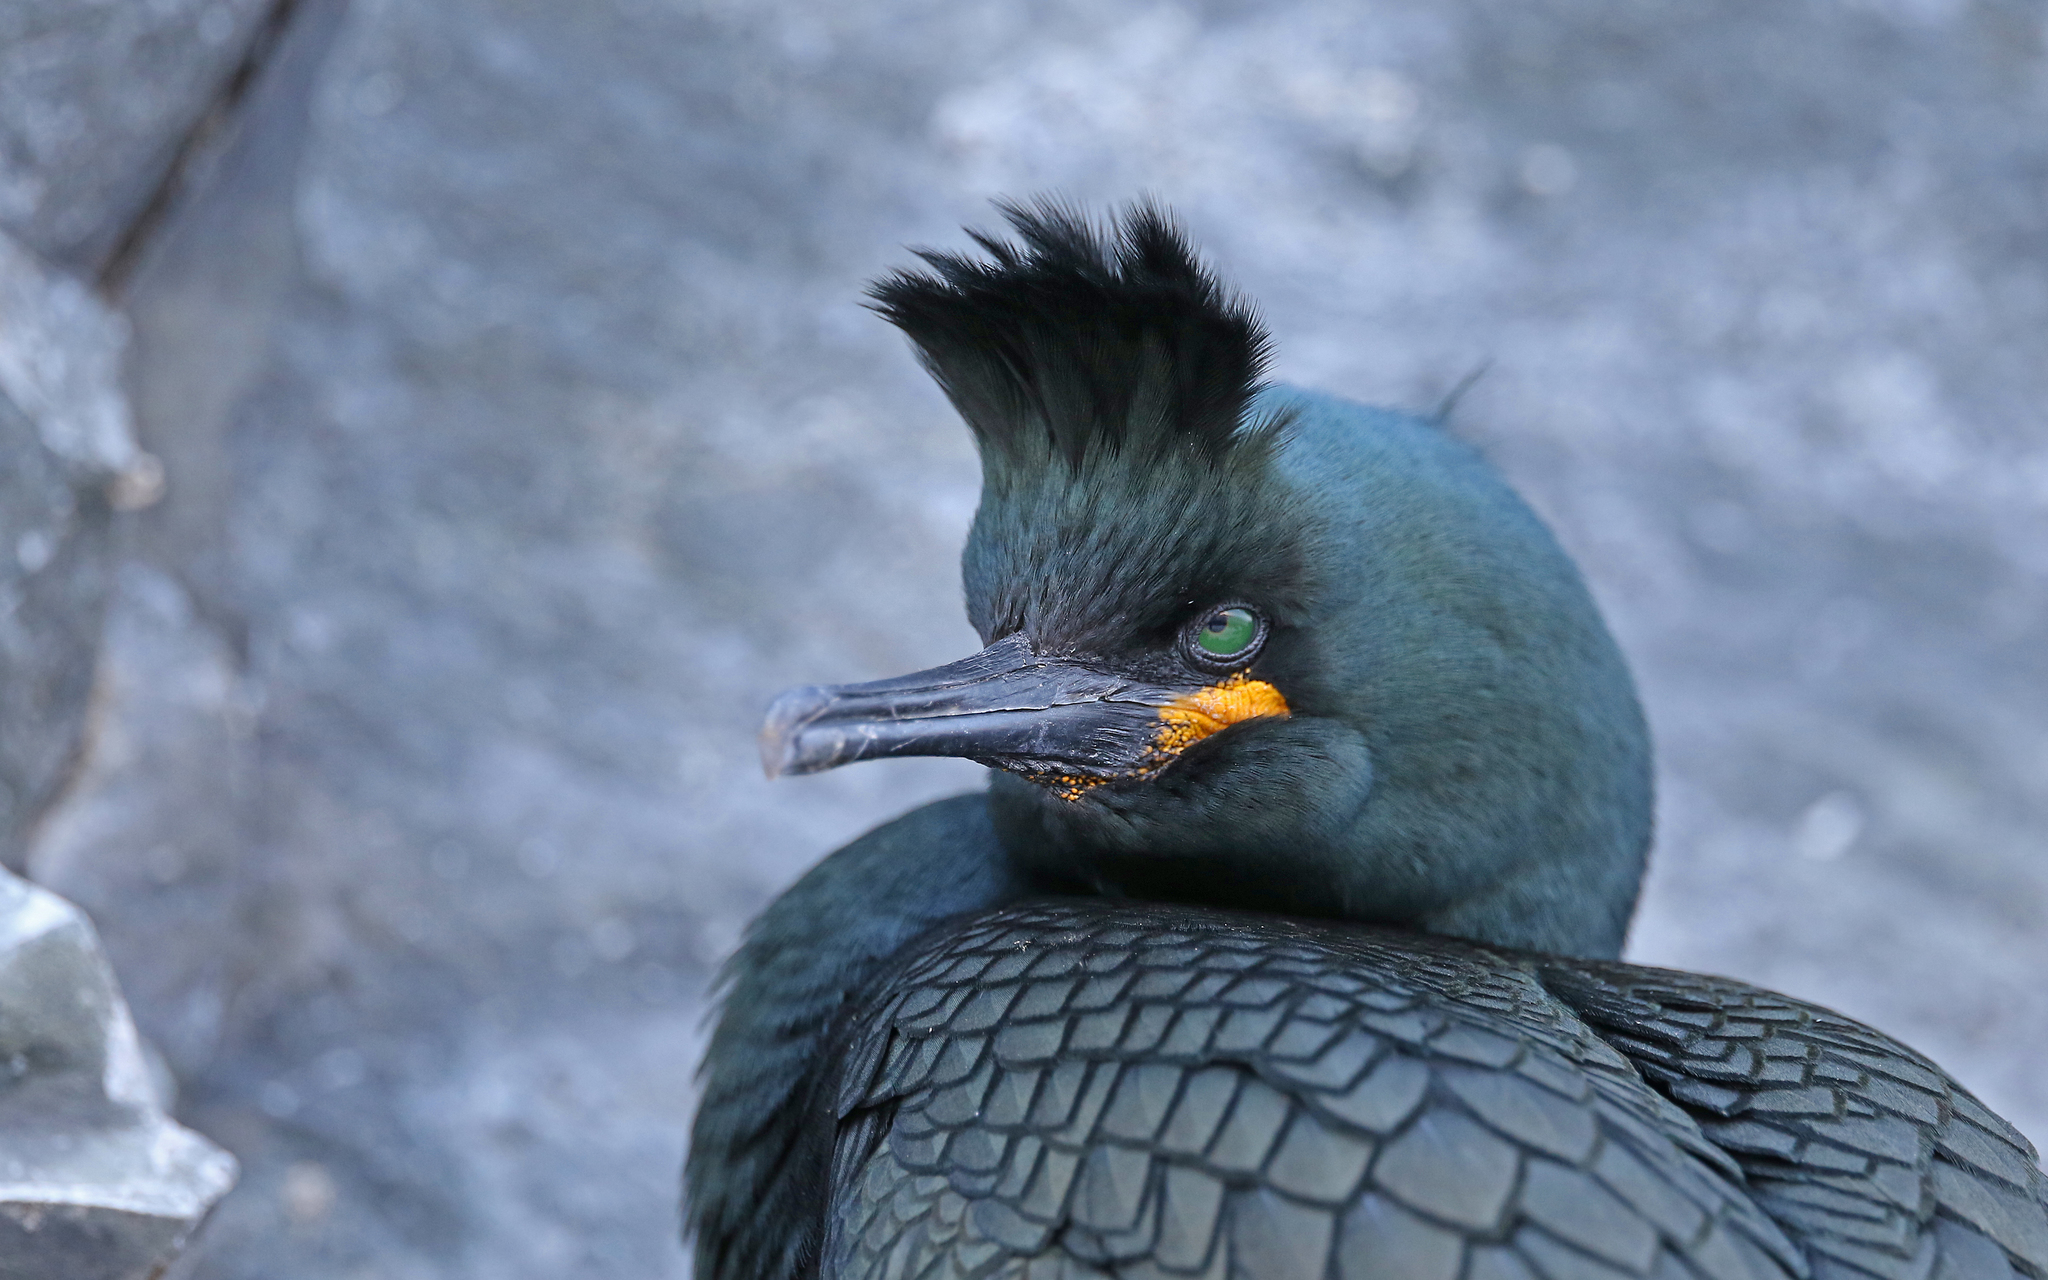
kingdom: Animalia
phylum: Chordata
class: Aves
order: Suliformes
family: Phalacrocoracidae
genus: Phalacrocorax
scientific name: Phalacrocorax aristotelis
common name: European shag
